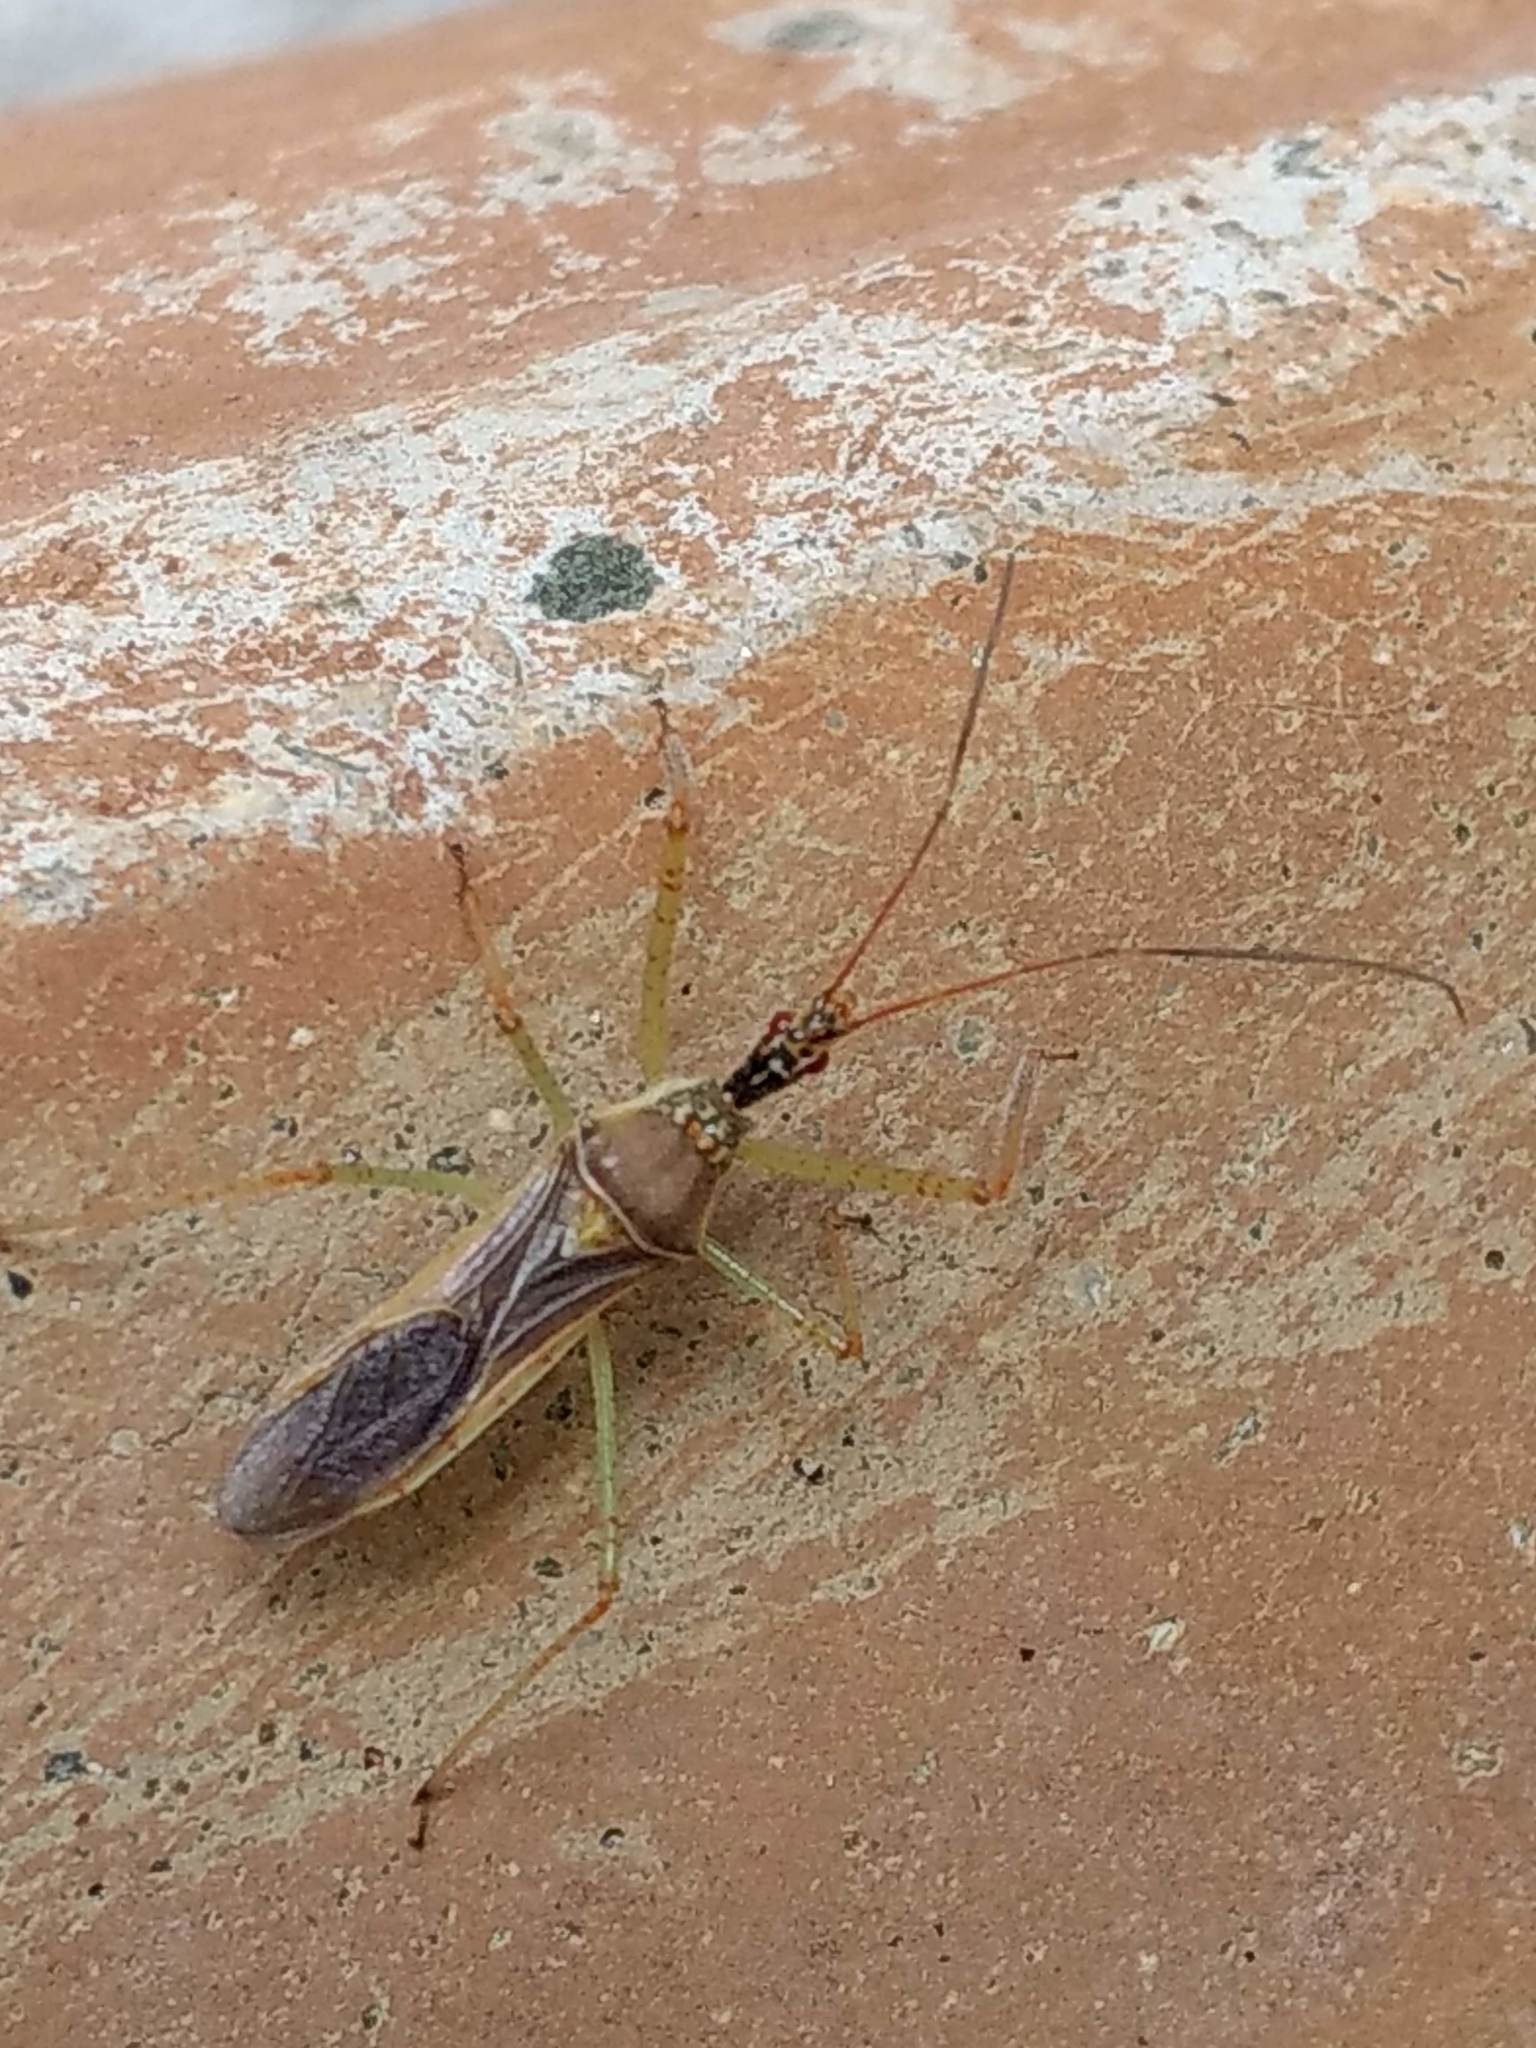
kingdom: Animalia
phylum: Arthropoda
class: Insecta
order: Hemiptera
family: Reduviidae
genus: Zelus
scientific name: Zelus renardii
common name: Assassin bug
